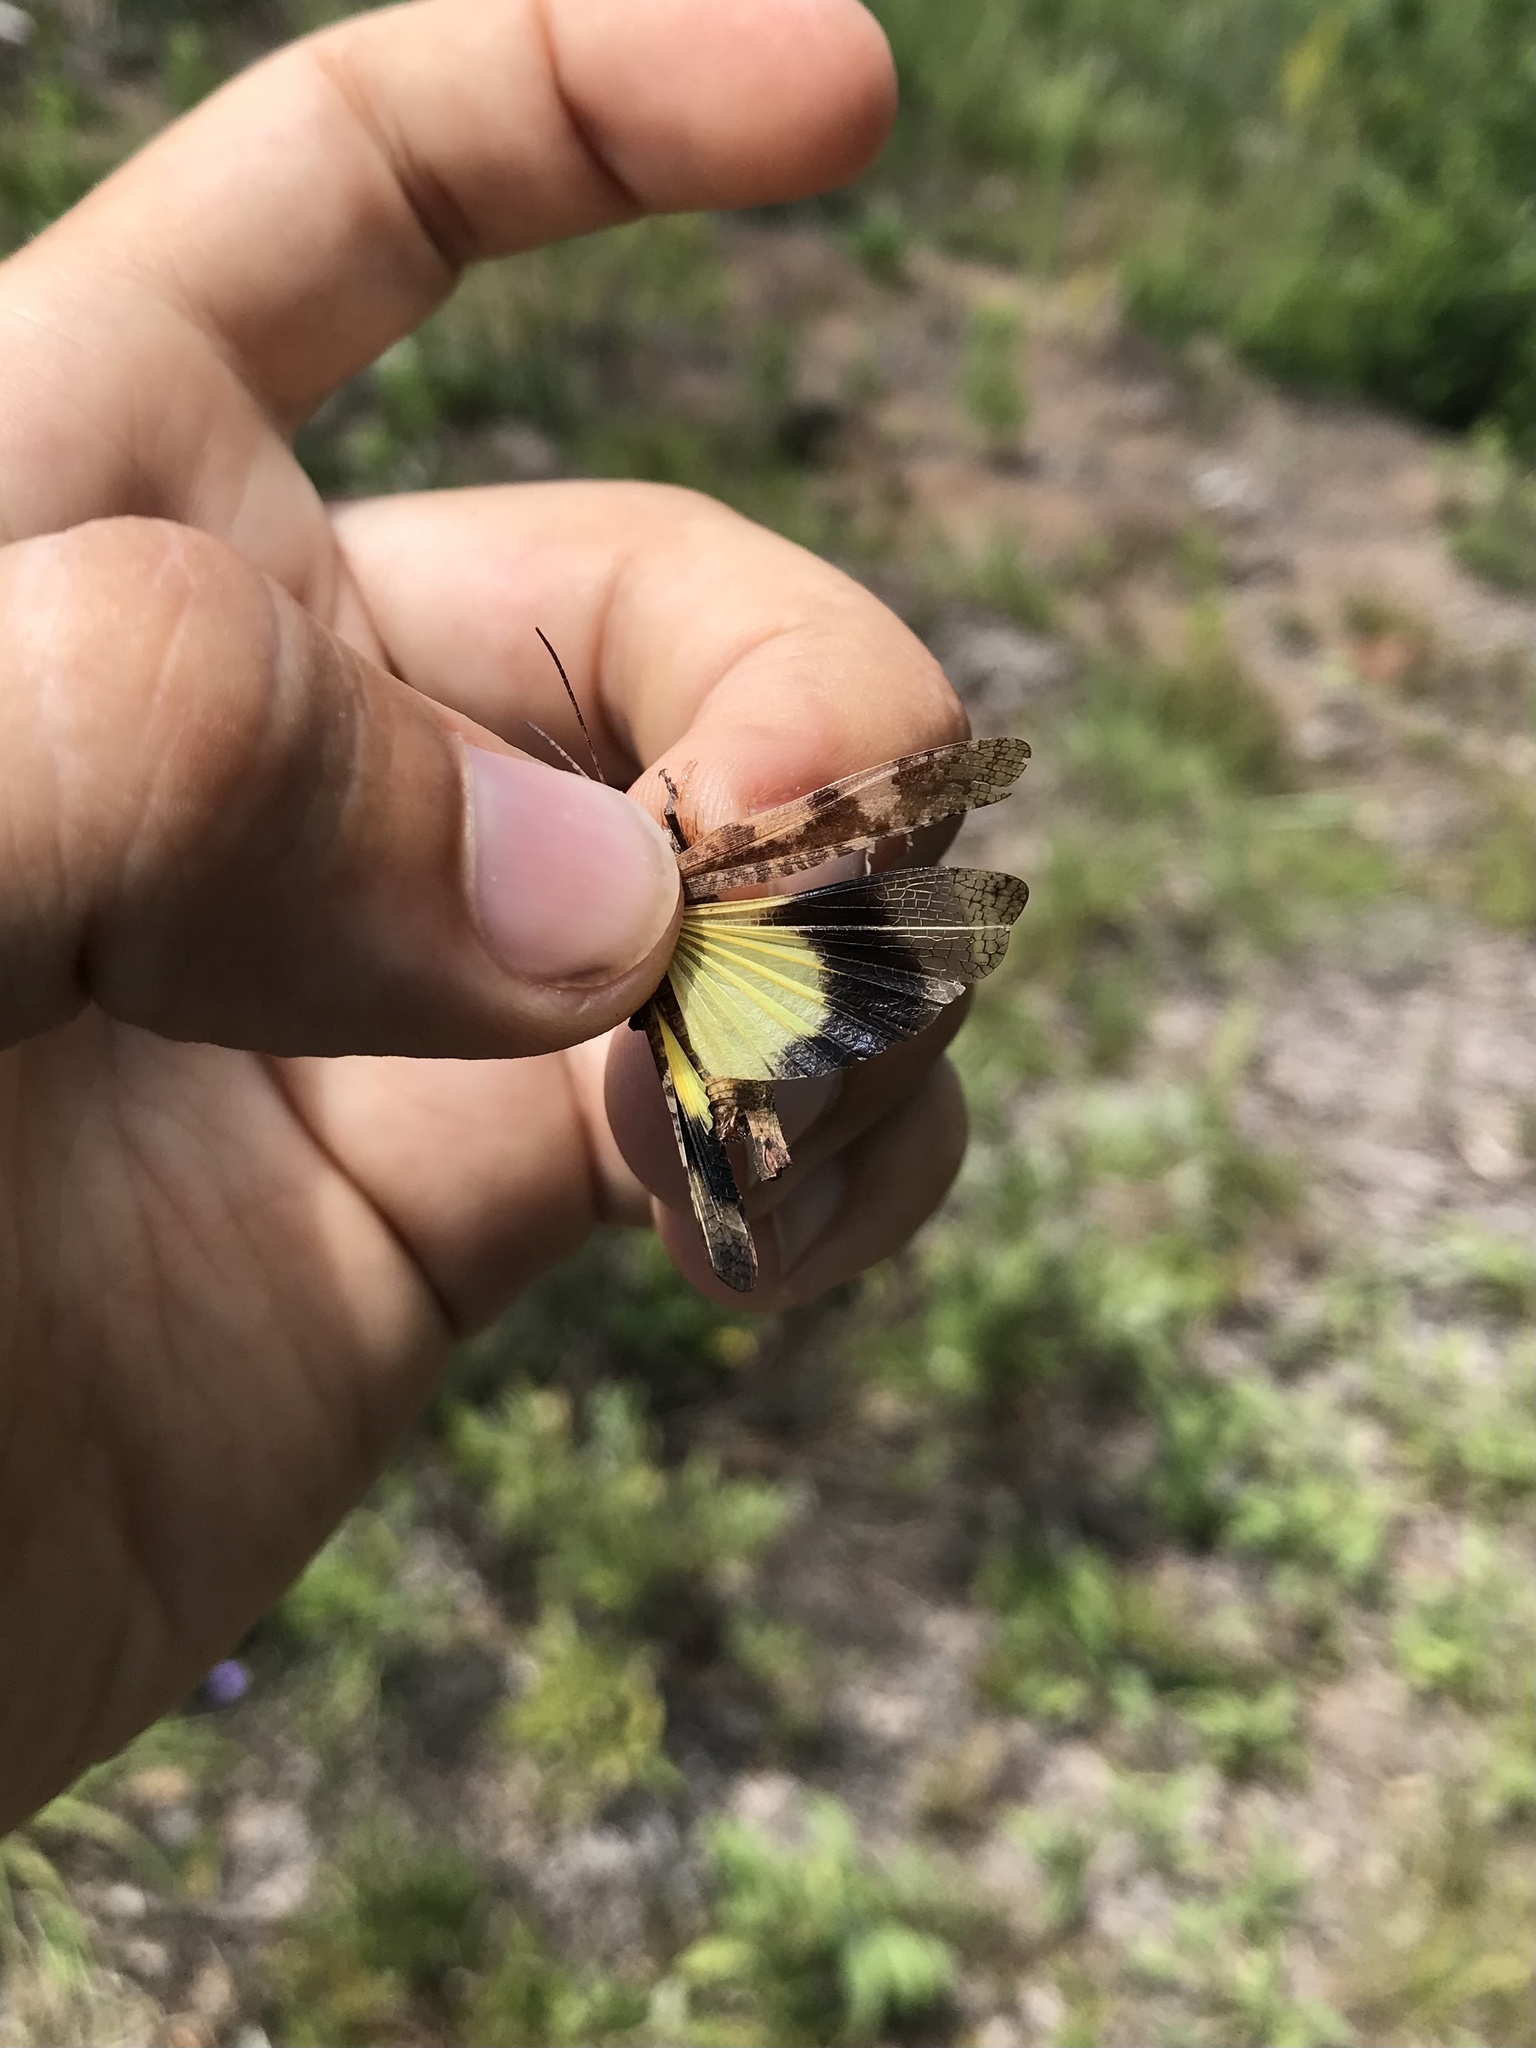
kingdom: Animalia
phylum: Arthropoda
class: Insecta
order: Orthoptera
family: Acrididae
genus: Spharagemon
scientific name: Spharagemon bolli
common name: Boll's grasshopper
